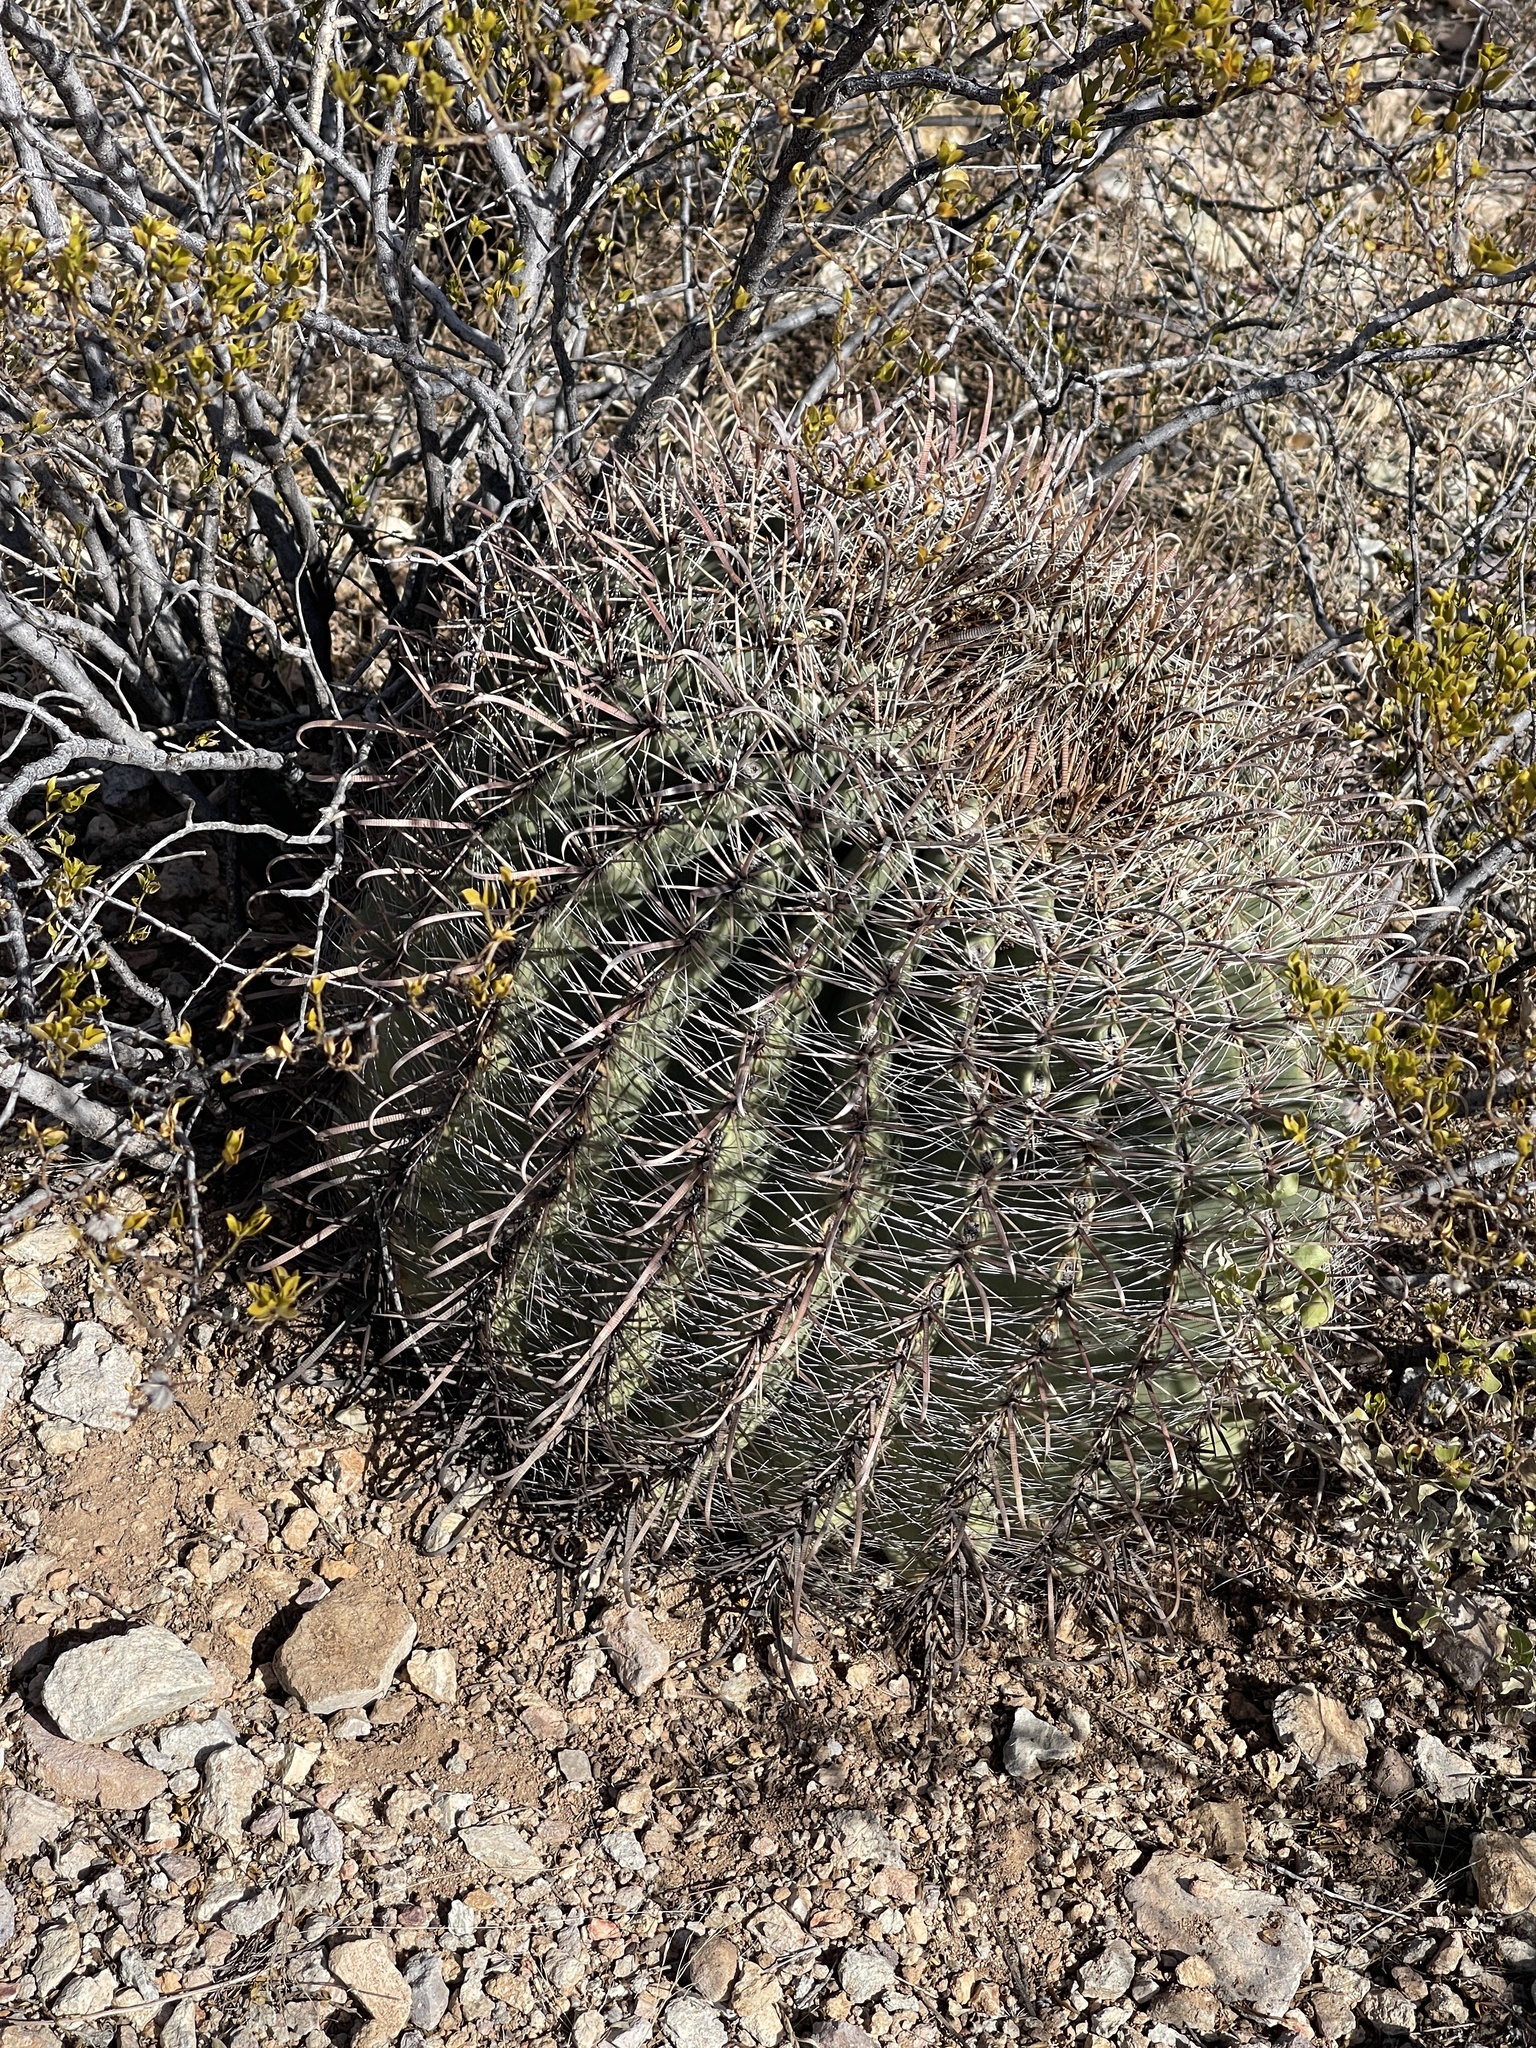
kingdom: Plantae
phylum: Tracheophyta
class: Magnoliopsida
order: Caryophyllales
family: Cactaceae
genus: Ferocactus
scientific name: Ferocactus wislizeni
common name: Candy barrel cactus
